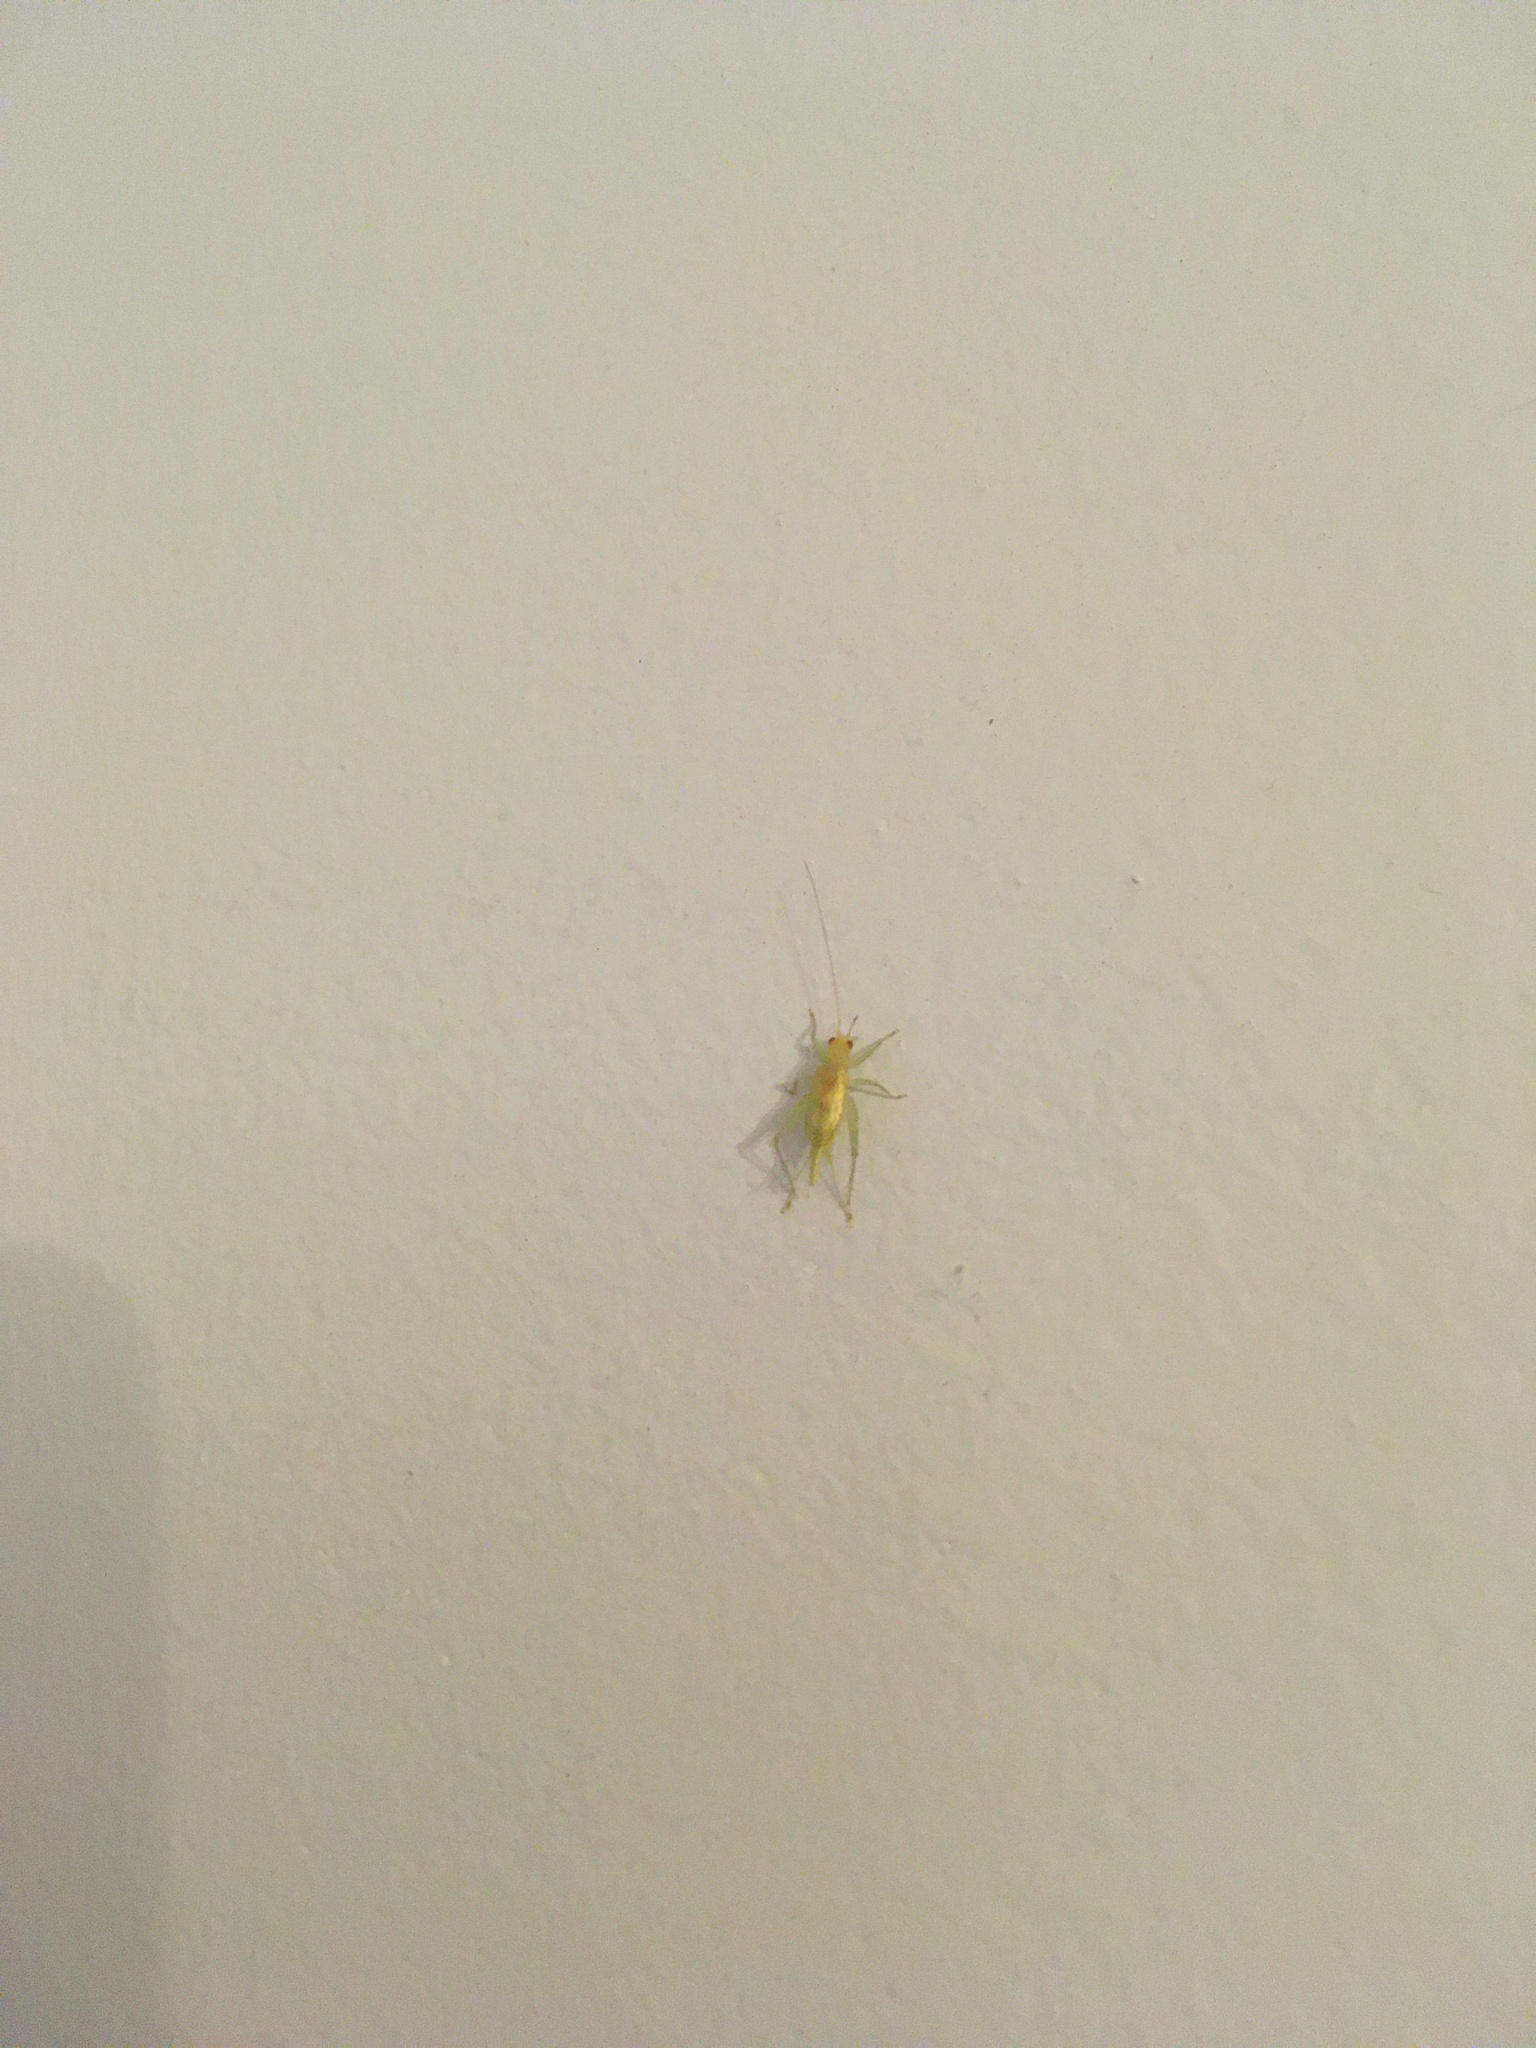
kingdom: Animalia
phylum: Arthropoda
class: Insecta
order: Orthoptera
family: Trigonidiidae
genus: Cyrtoxipha
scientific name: Cyrtoxipha columbiana
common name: Columbian trig
